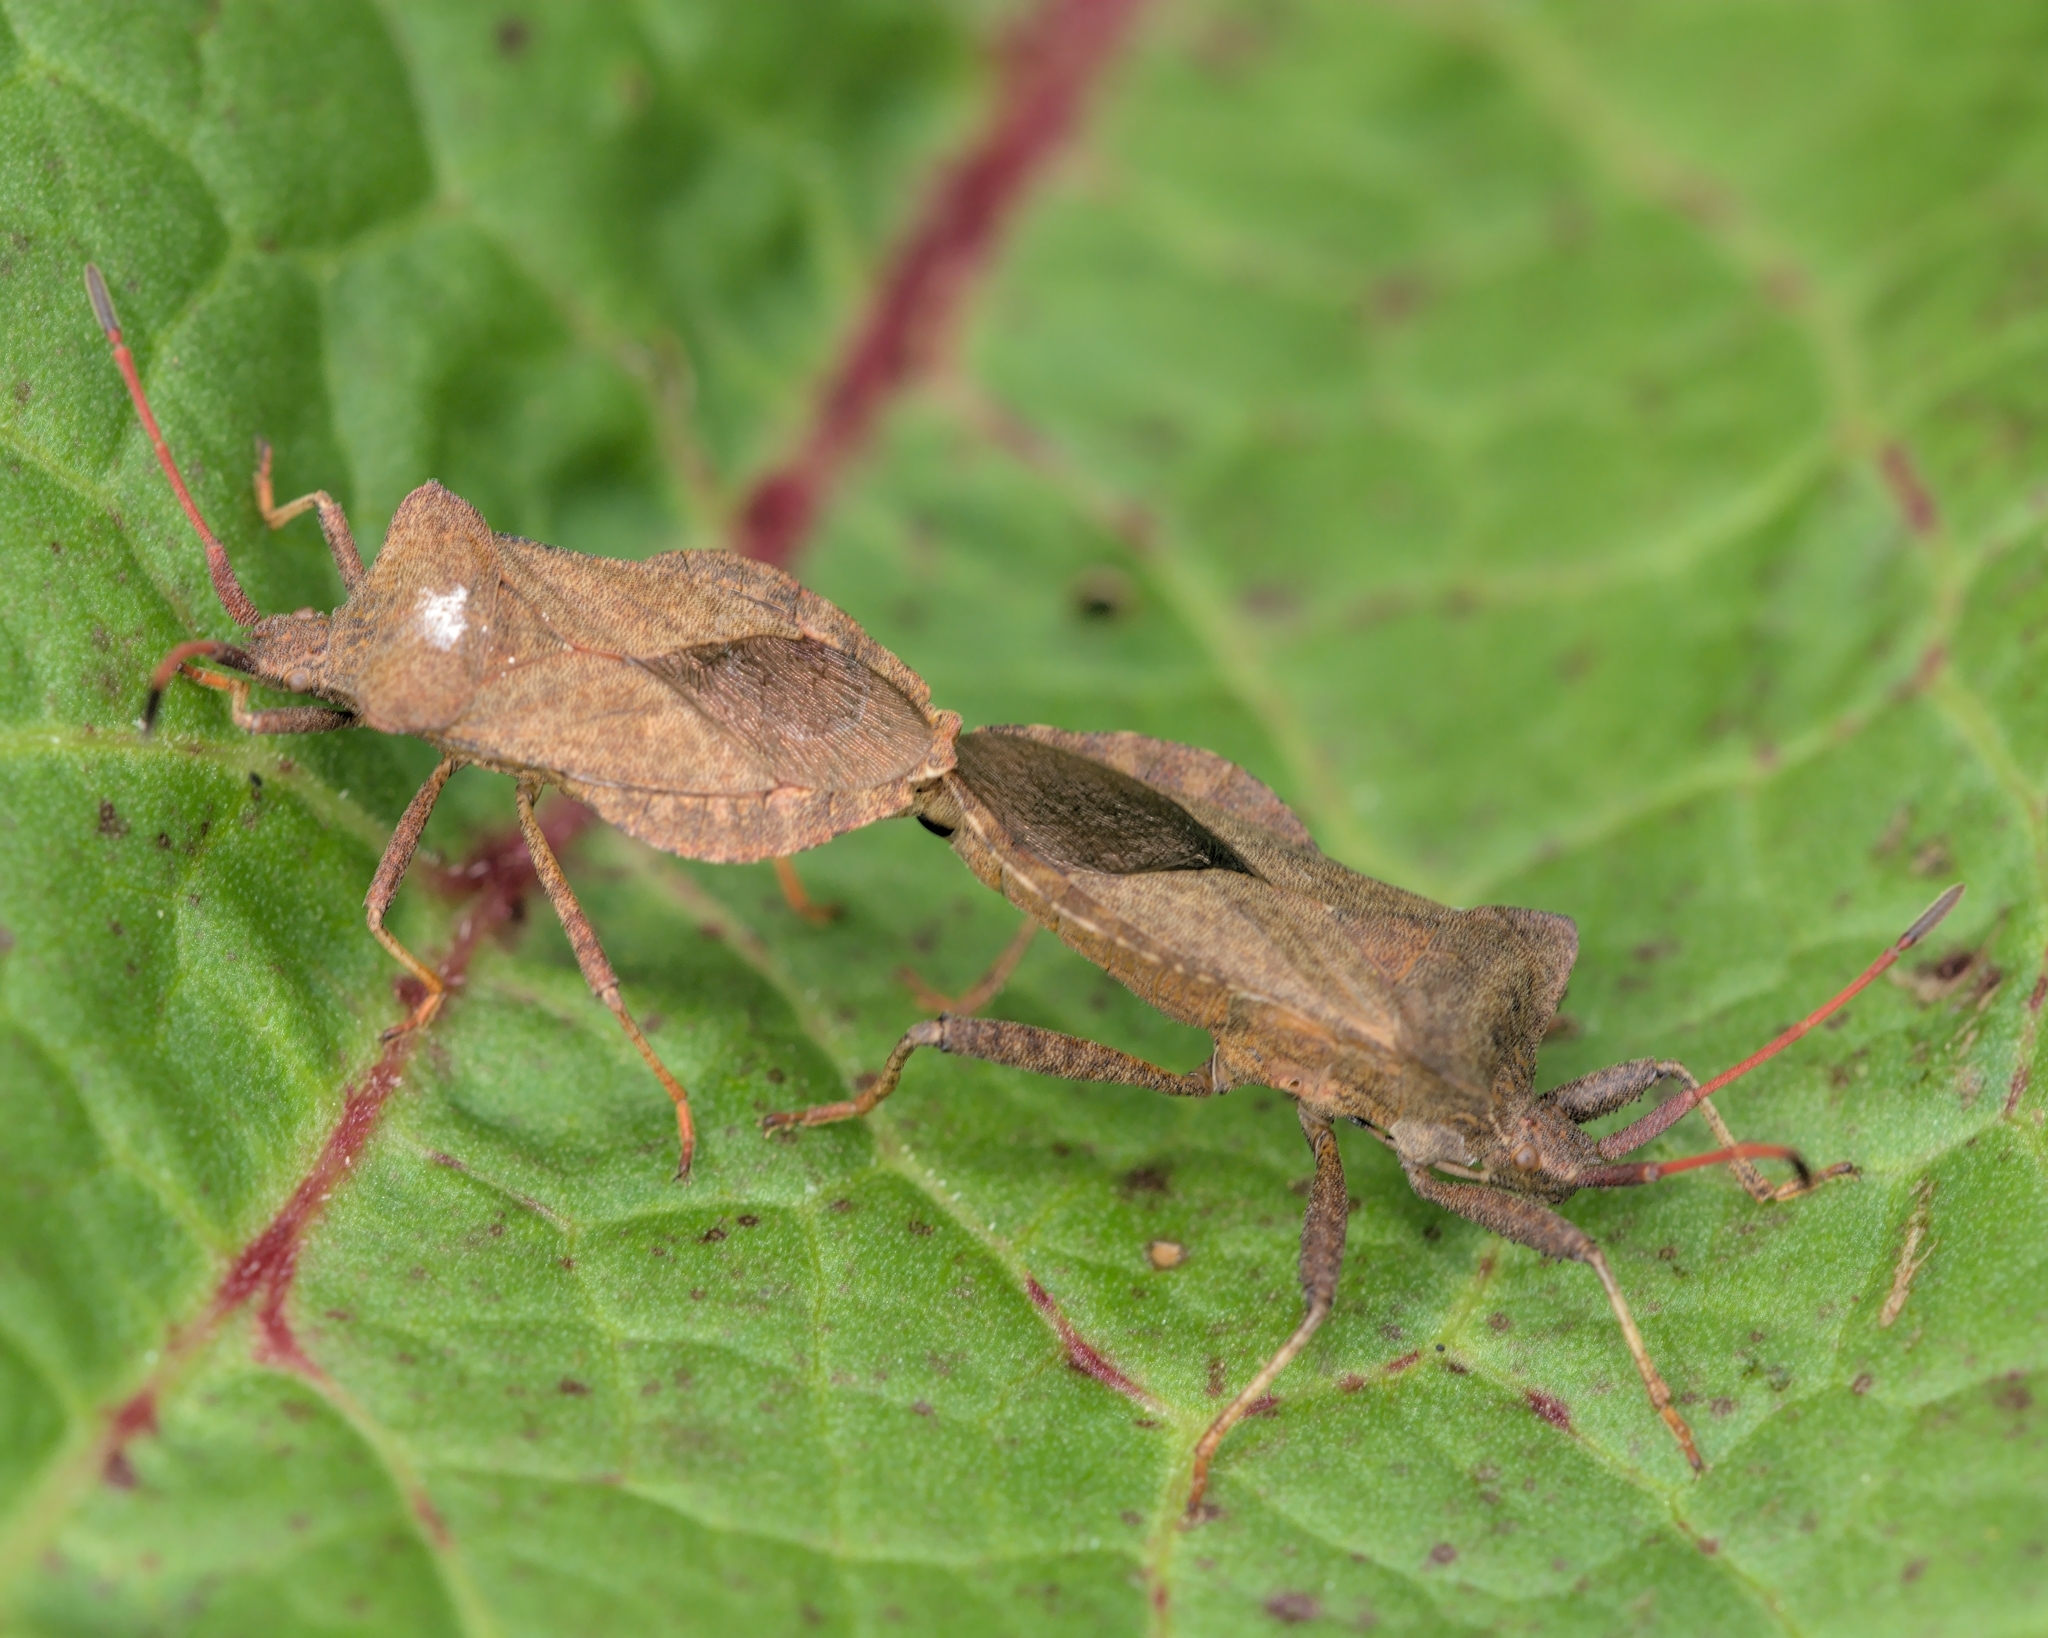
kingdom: Animalia
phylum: Arthropoda
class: Insecta
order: Hemiptera
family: Coreidae
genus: Coreus
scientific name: Coreus marginatus
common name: Dock bug
